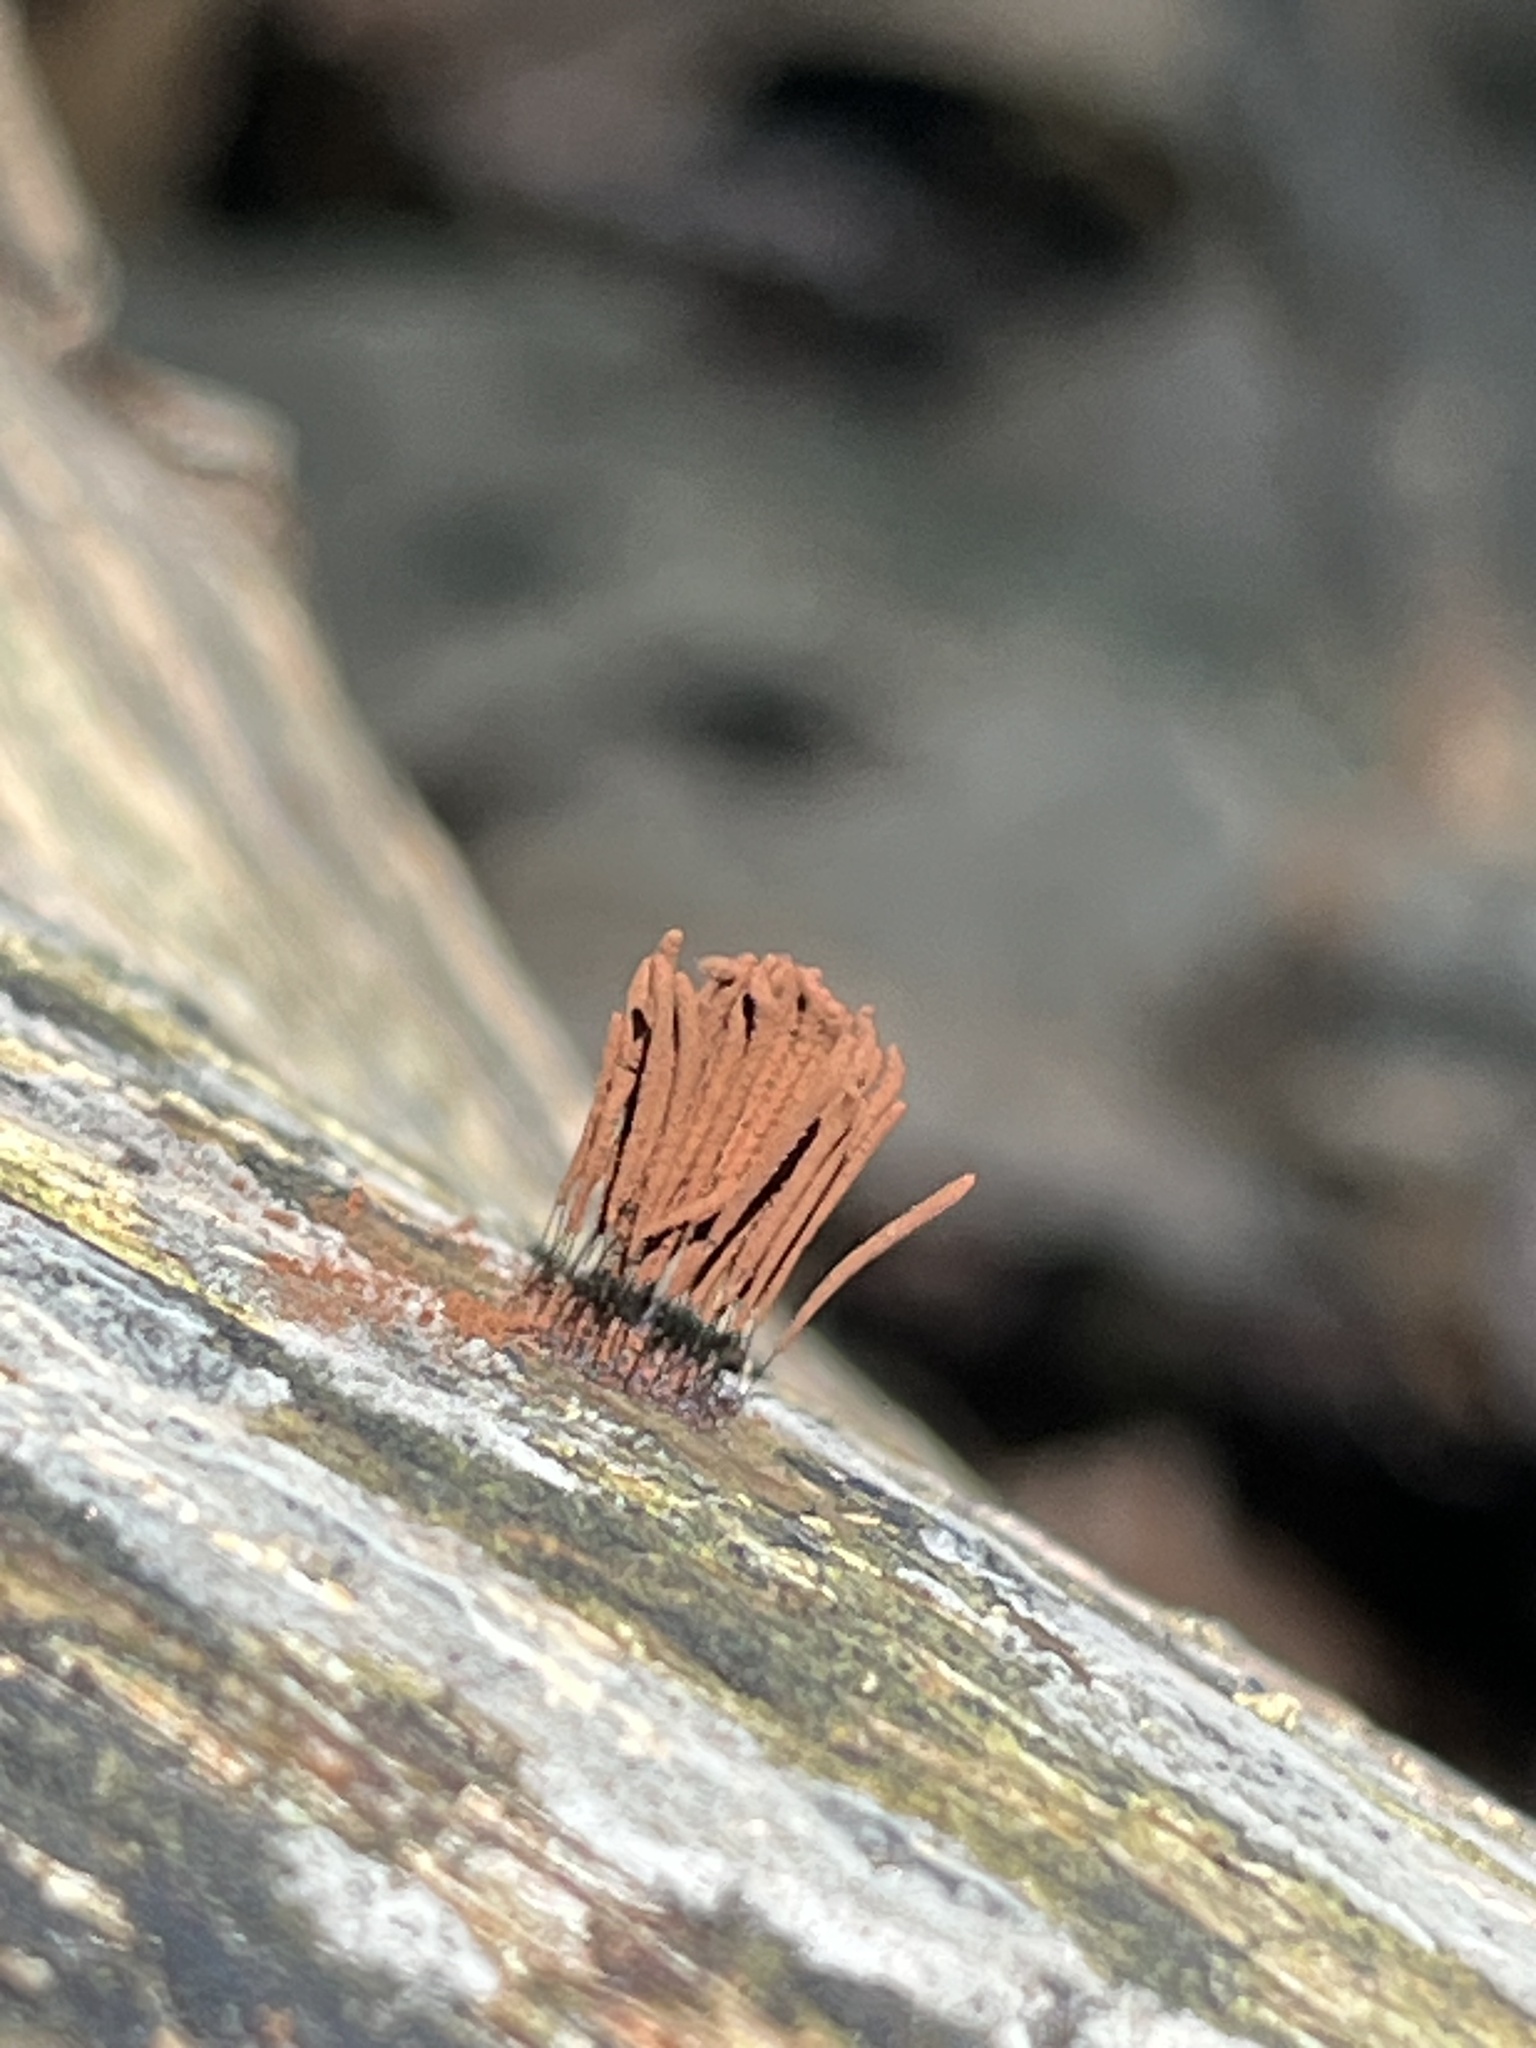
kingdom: Protozoa
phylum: Mycetozoa
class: Myxomycetes
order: Stemonitidales
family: Stemonitidaceae
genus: Stemonitis
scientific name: Stemonitis splendens
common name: Chocolate tube slime
